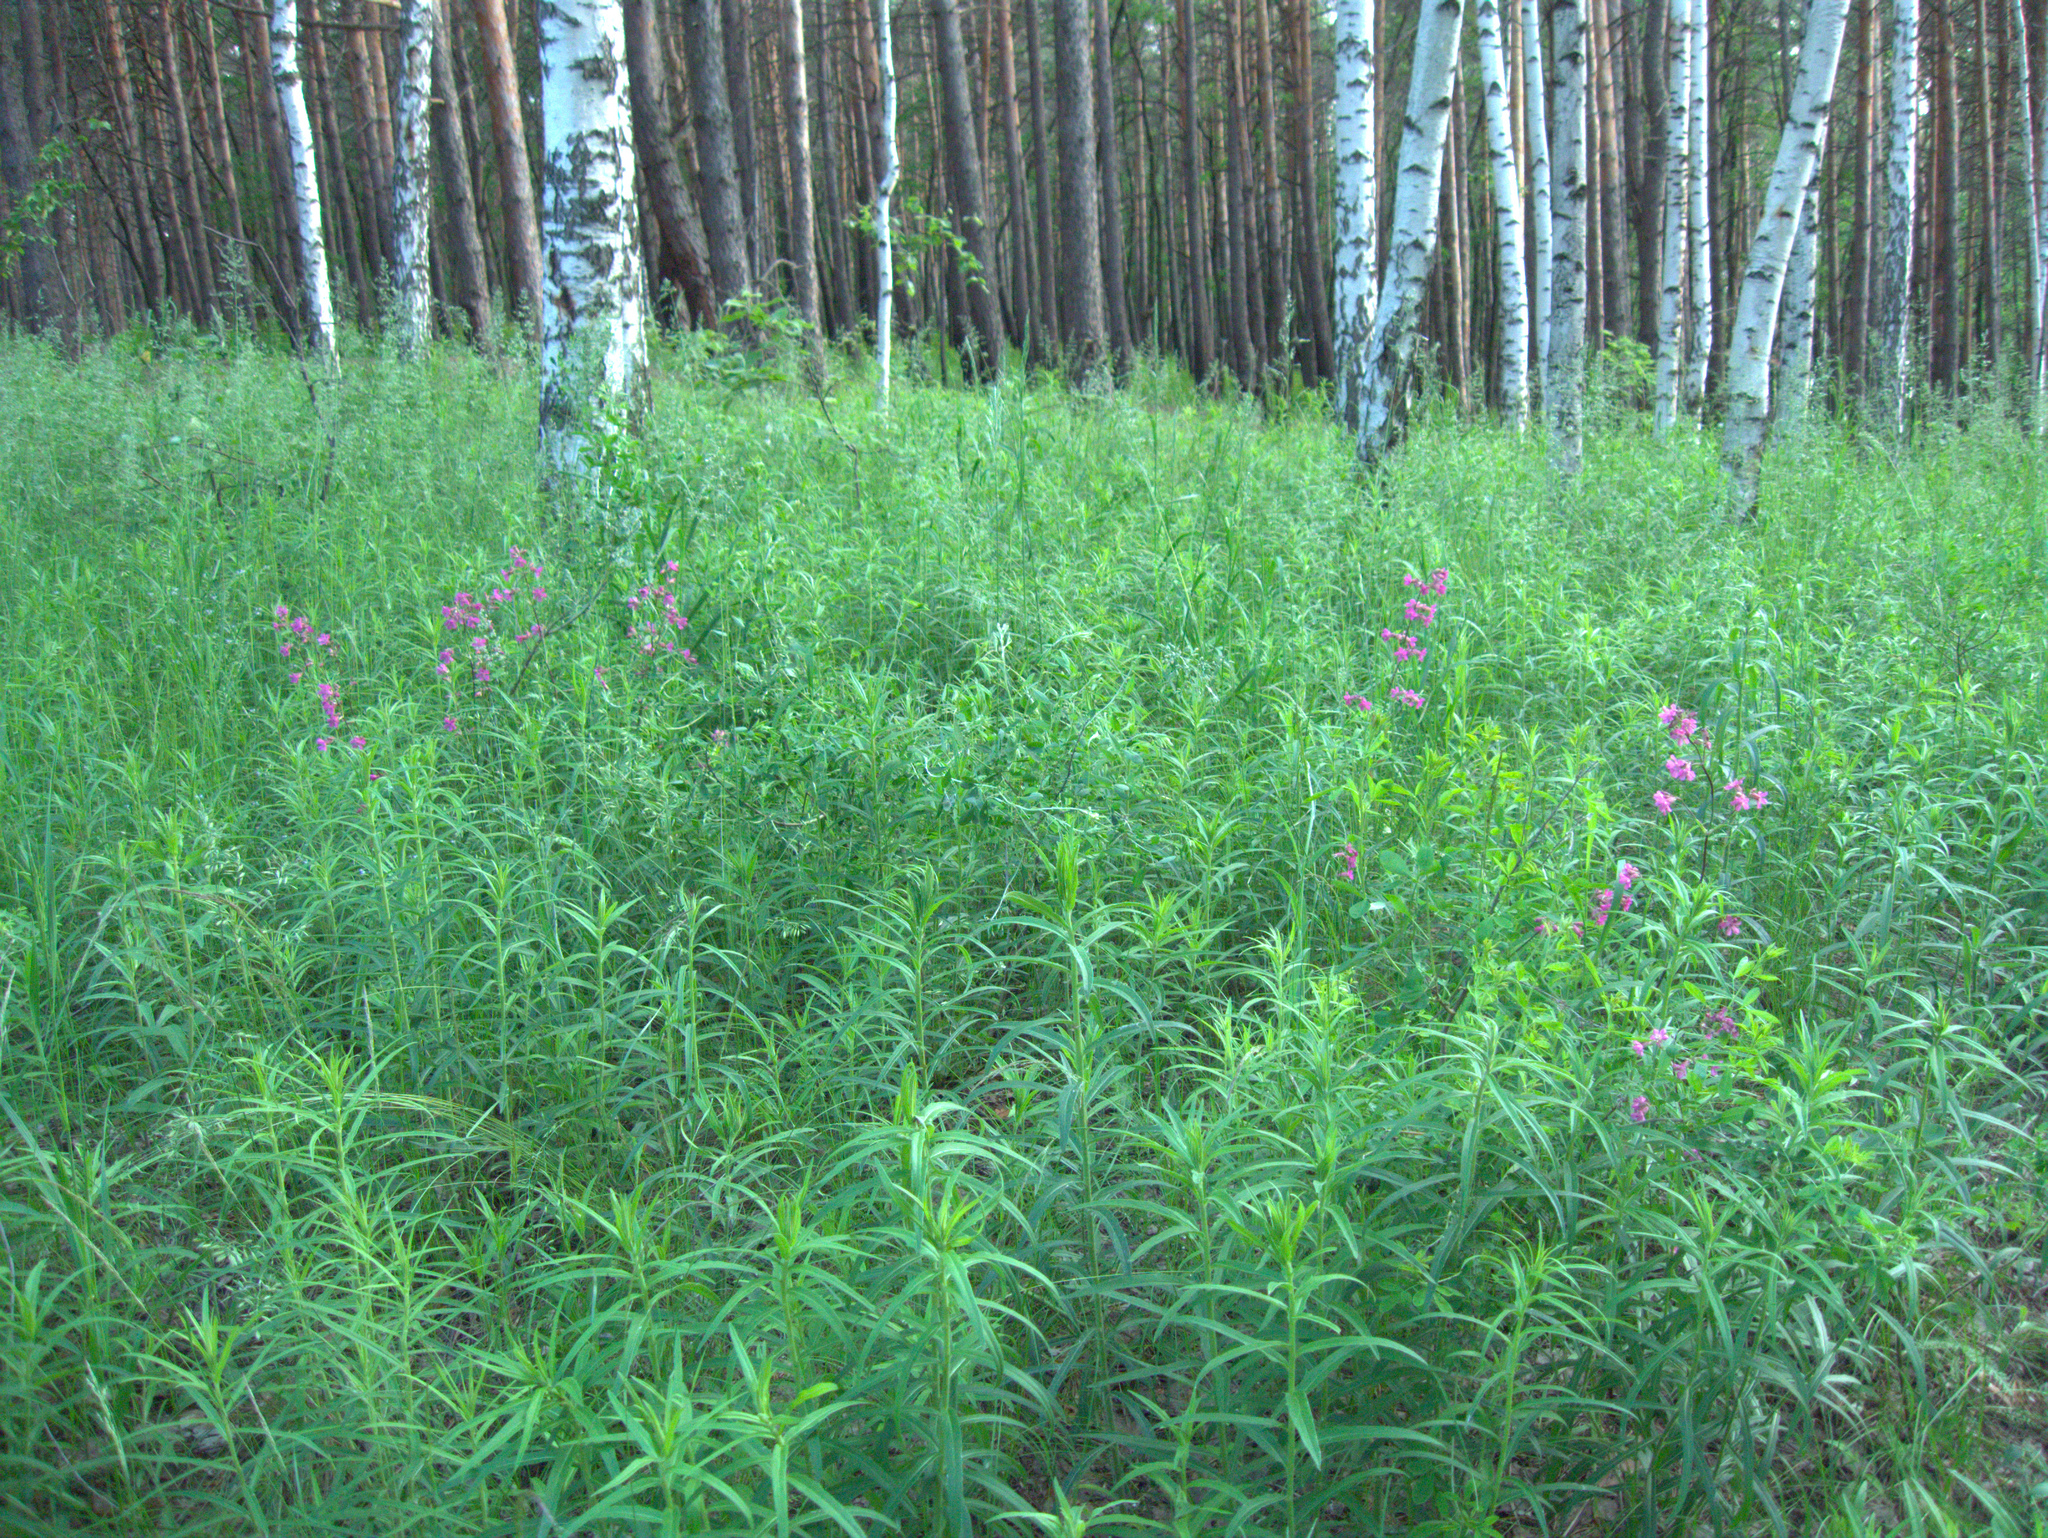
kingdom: Plantae
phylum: Tracheophyta
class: Magnoliopsida
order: Myrtales
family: Onagraceae
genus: Chamaenerion
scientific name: Chamaenerion angustifolium
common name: Fireweed
